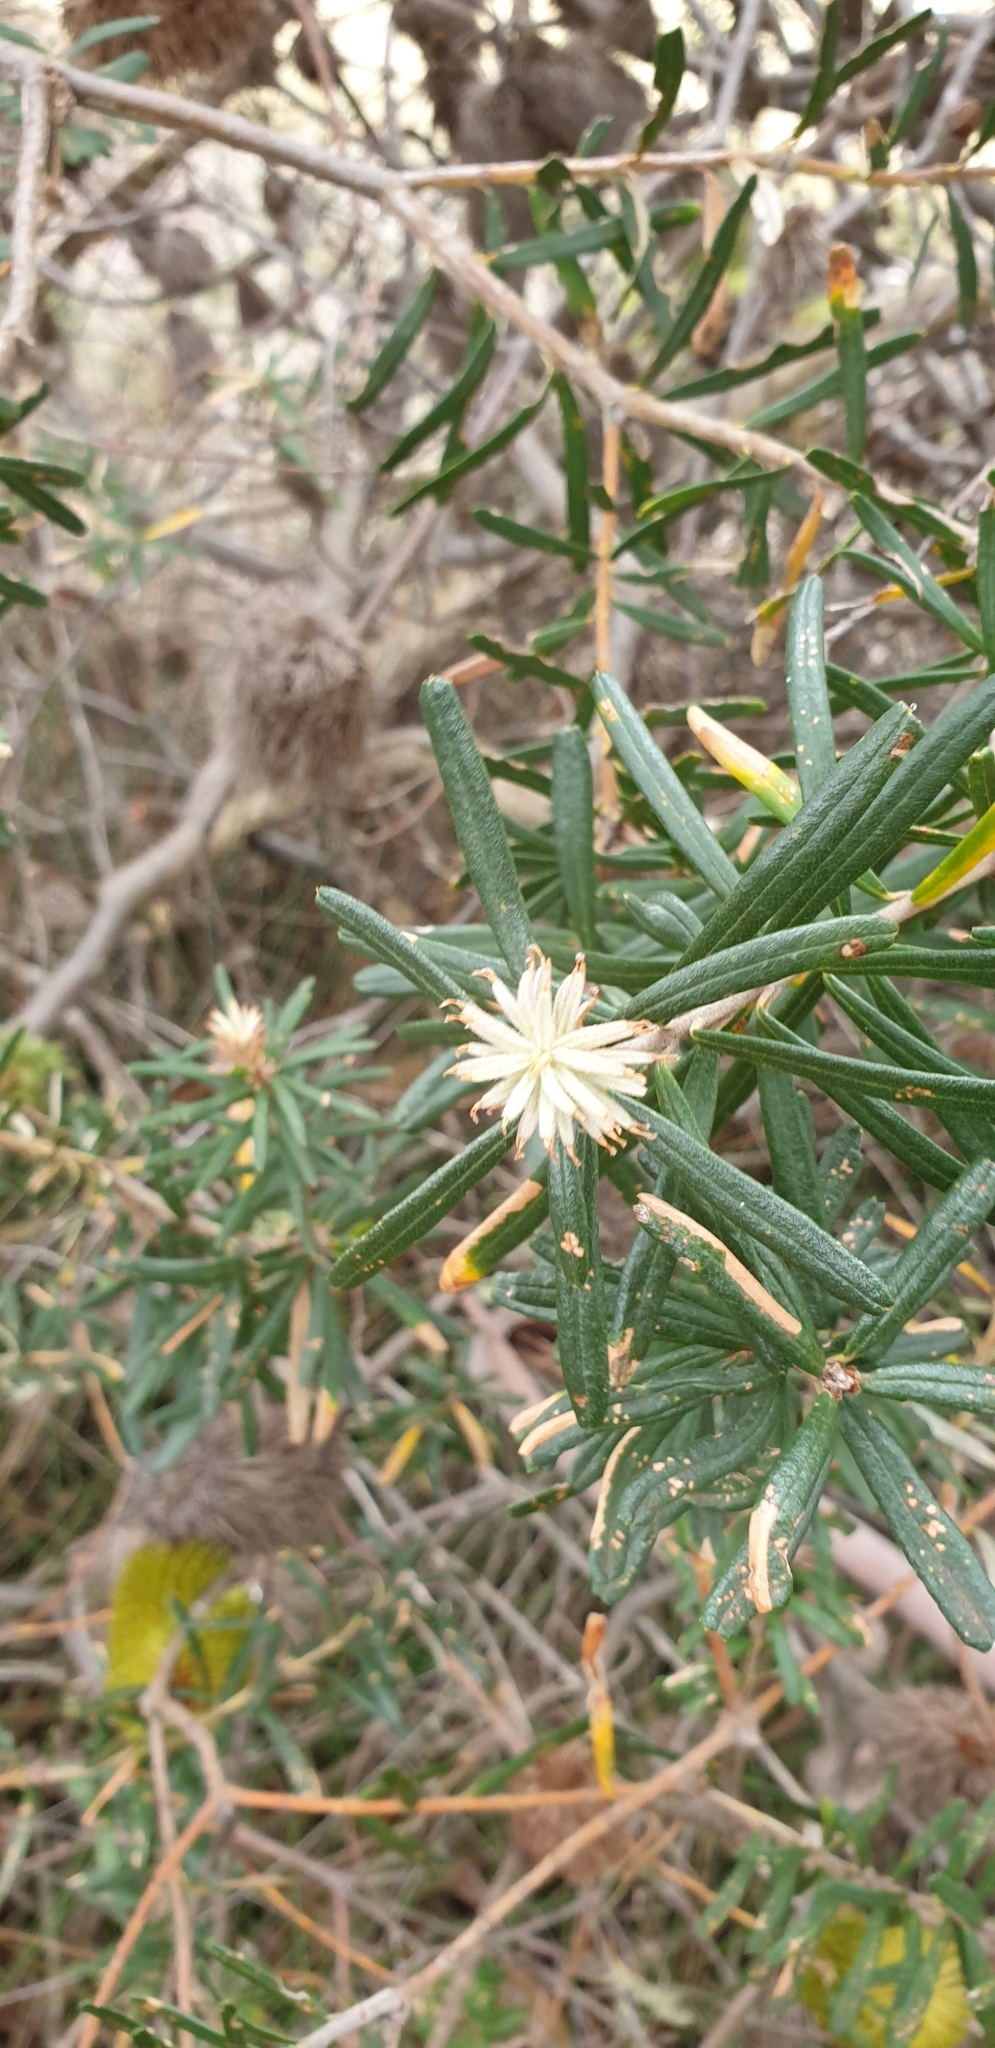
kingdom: Plantae
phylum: Tracheophyta
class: Magnoliopsida
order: Proteales
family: Proteaceae
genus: Banksia
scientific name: Banksia marginata
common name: Silver banksia
